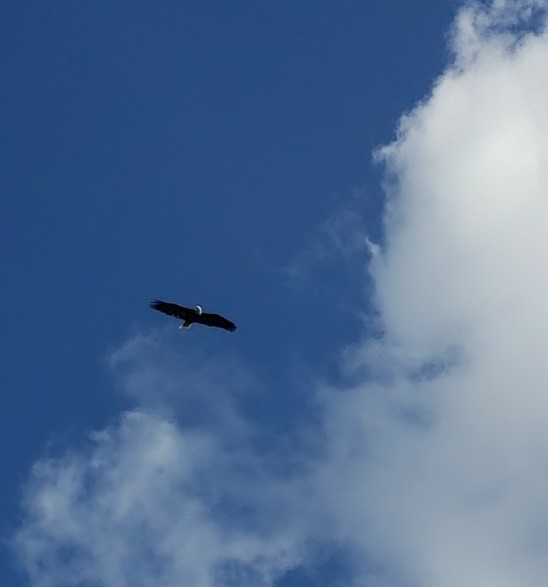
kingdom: Animalia
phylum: Chordata
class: Aves
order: Accipitriformes
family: Accipitridae
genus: Haliaeetus
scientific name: Haliaeetus leucocephalus
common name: Bald eagle
